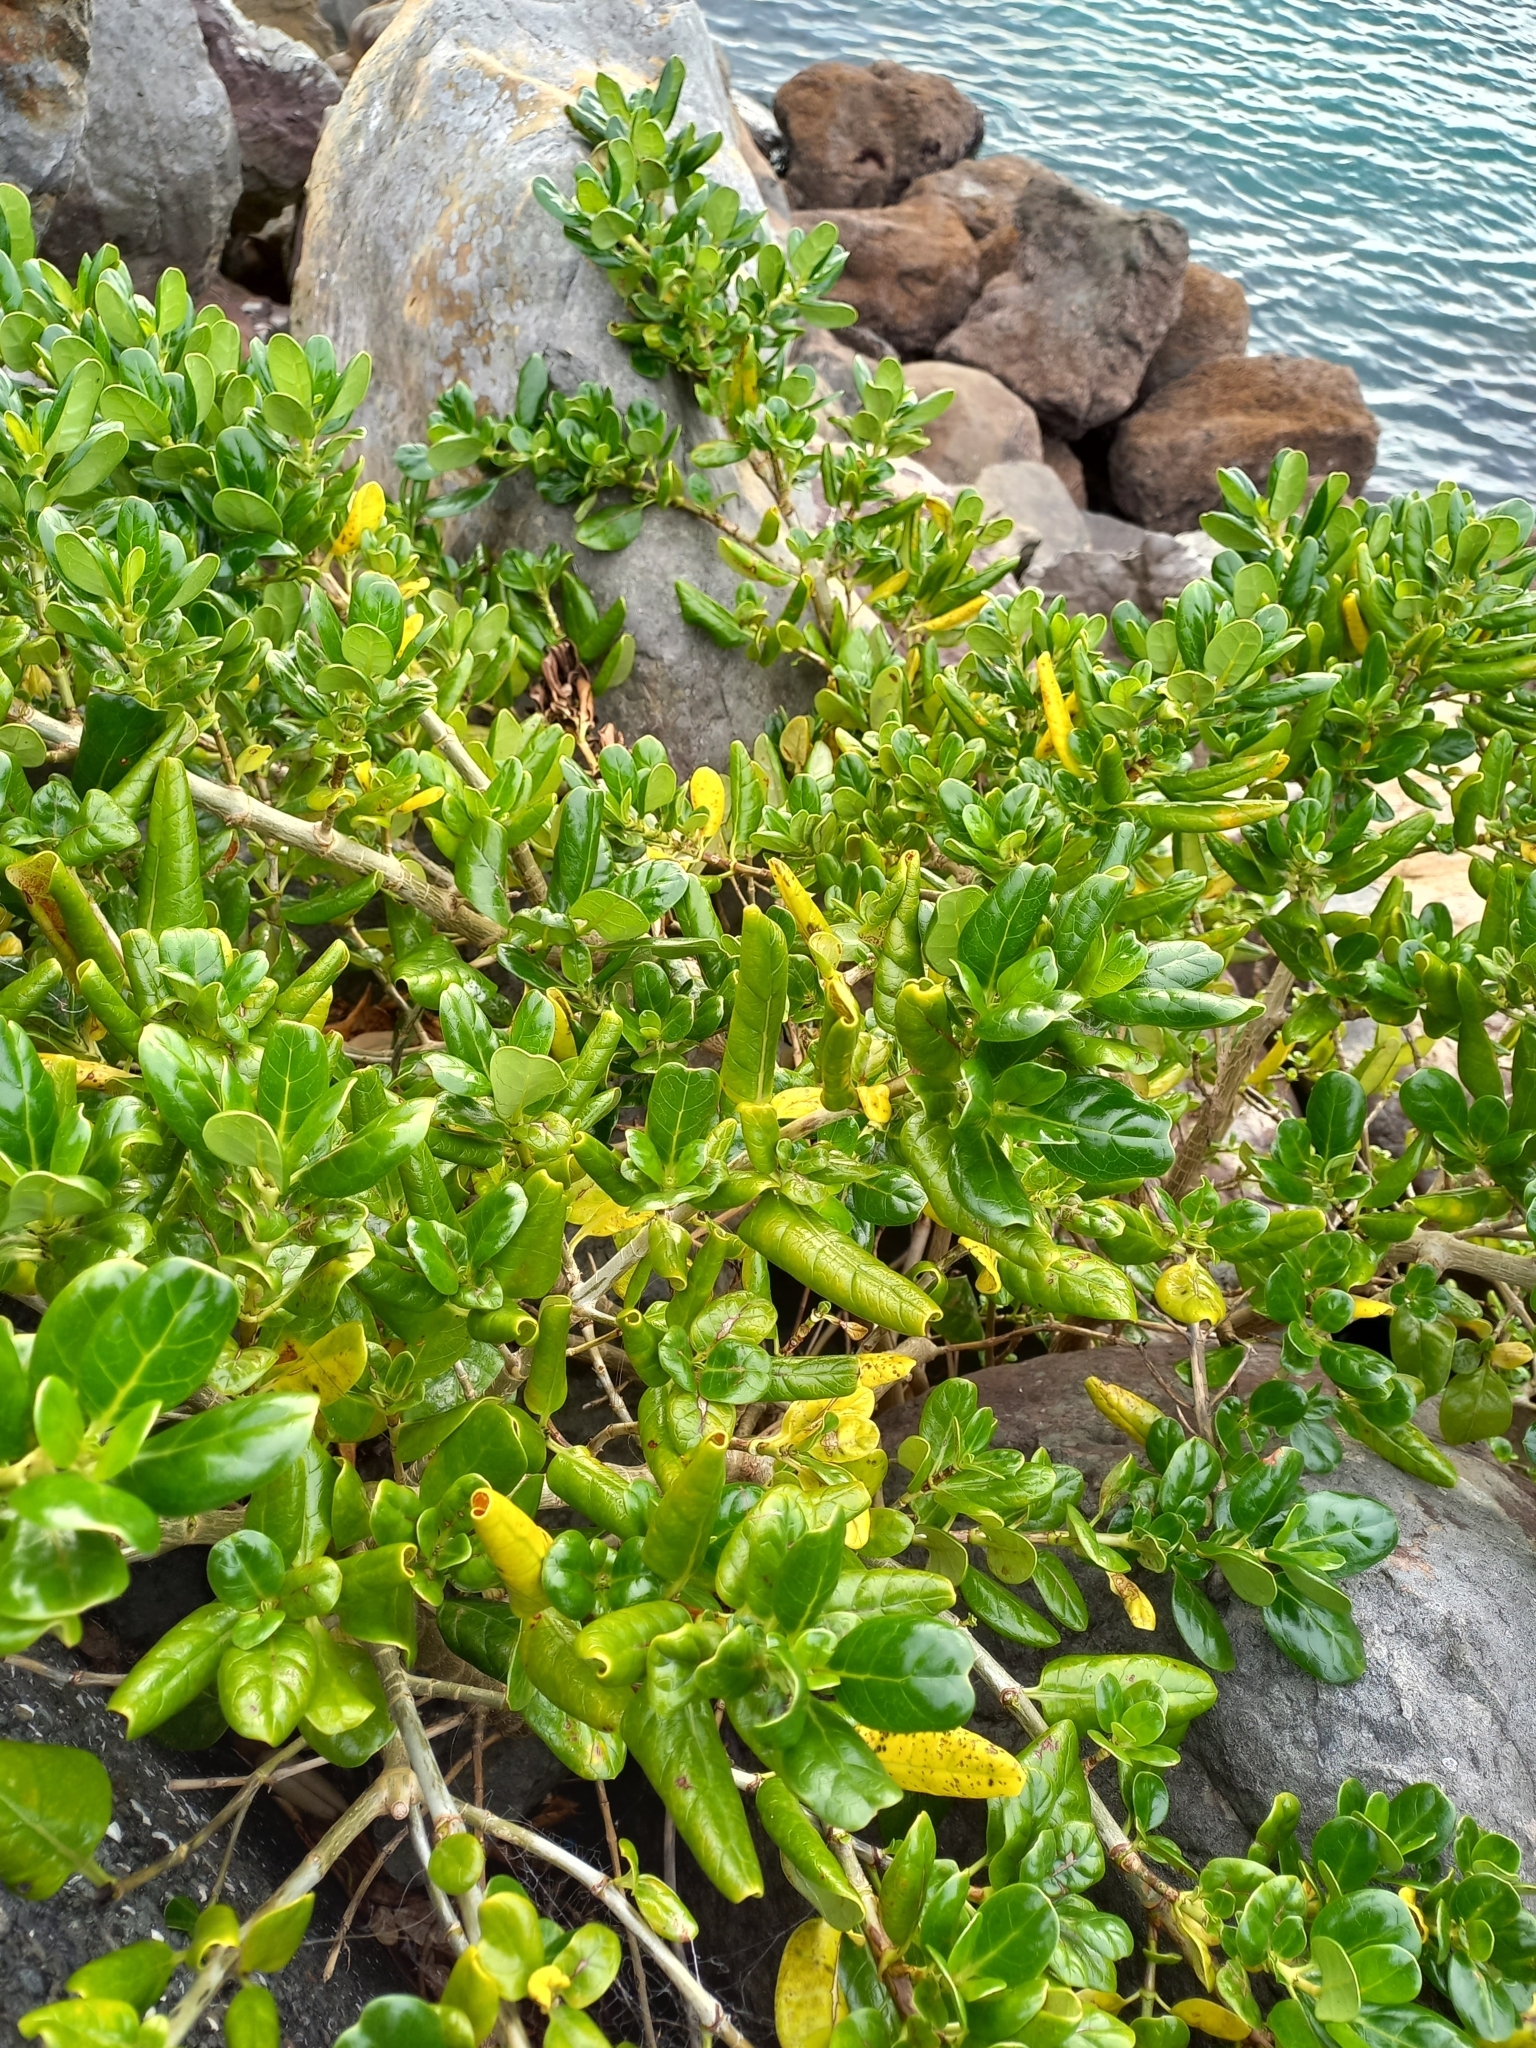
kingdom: Plantae
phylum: Tracheophyta
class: Magnoliopsida
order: Gentianales
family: Rubiaceae
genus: Coprosma
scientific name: Coprosma repens
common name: Tree bedstraw
